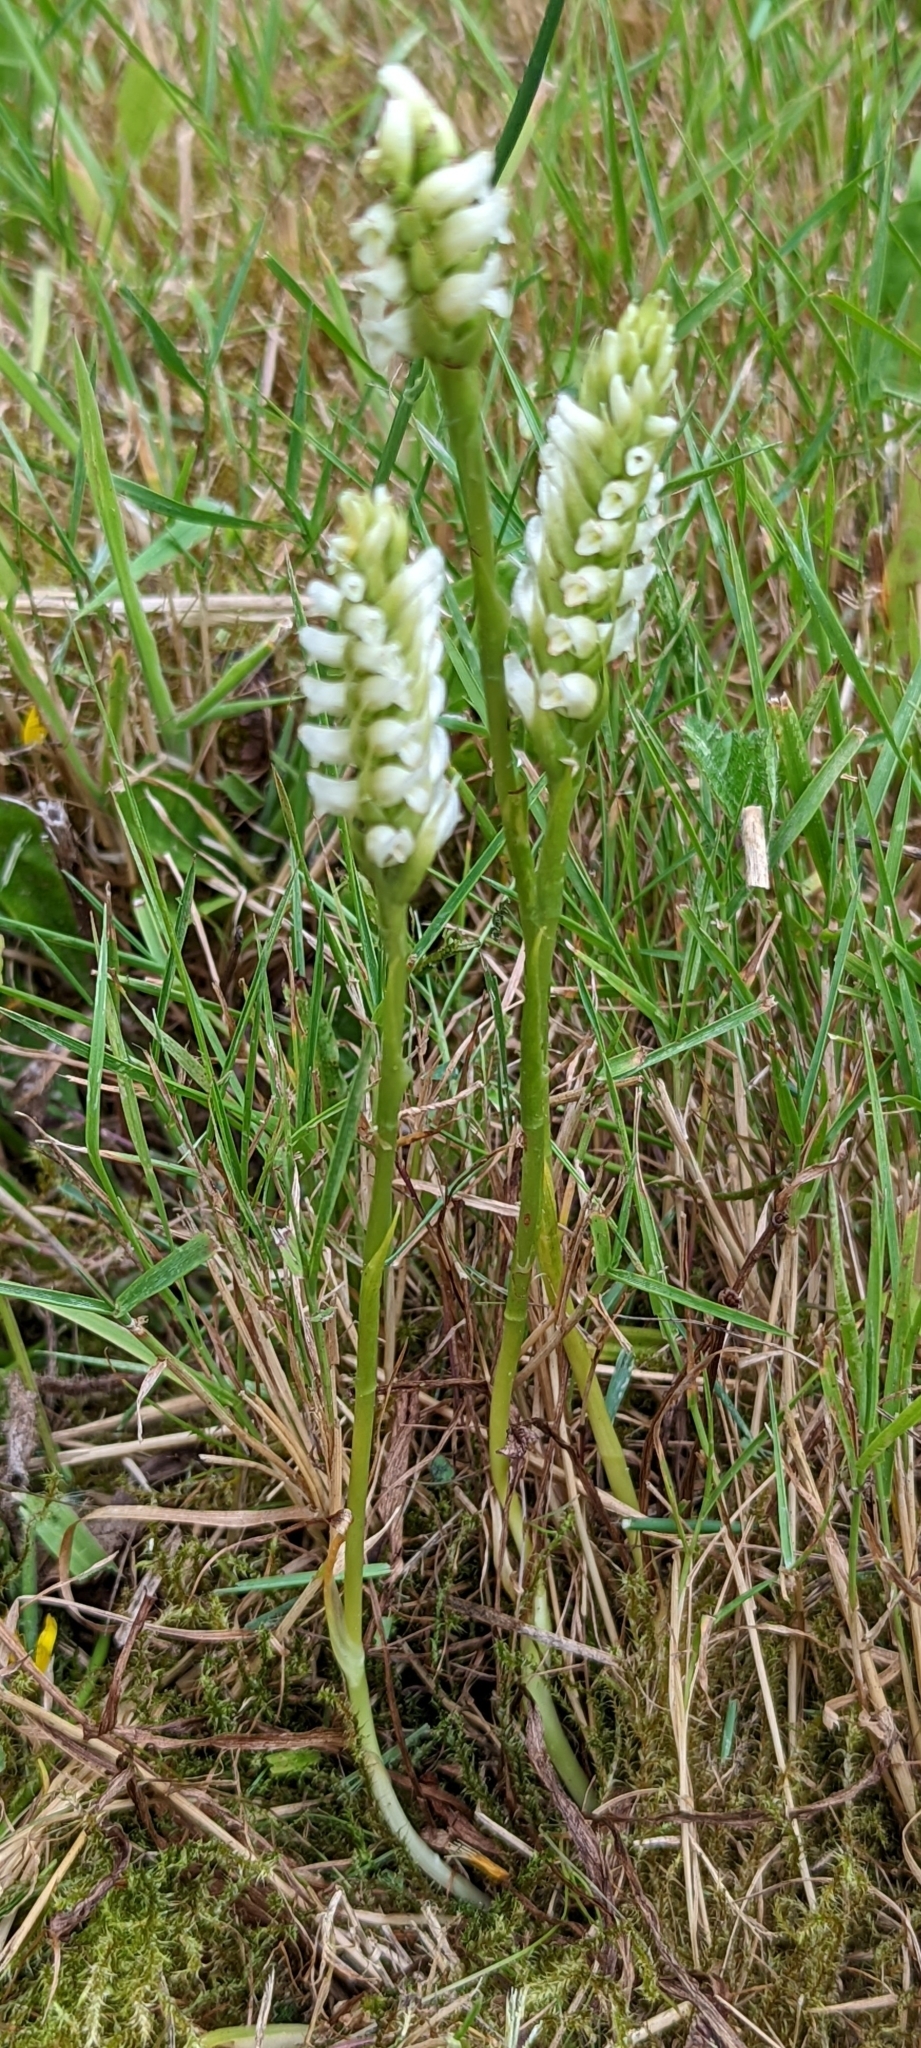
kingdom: Plantae
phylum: Tracheophyta
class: Liliopsida
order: Asparagales
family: Orchidaceae
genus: Spiranthes
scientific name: Spiranthes romanzoffiana
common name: Irish lady's-tresses
